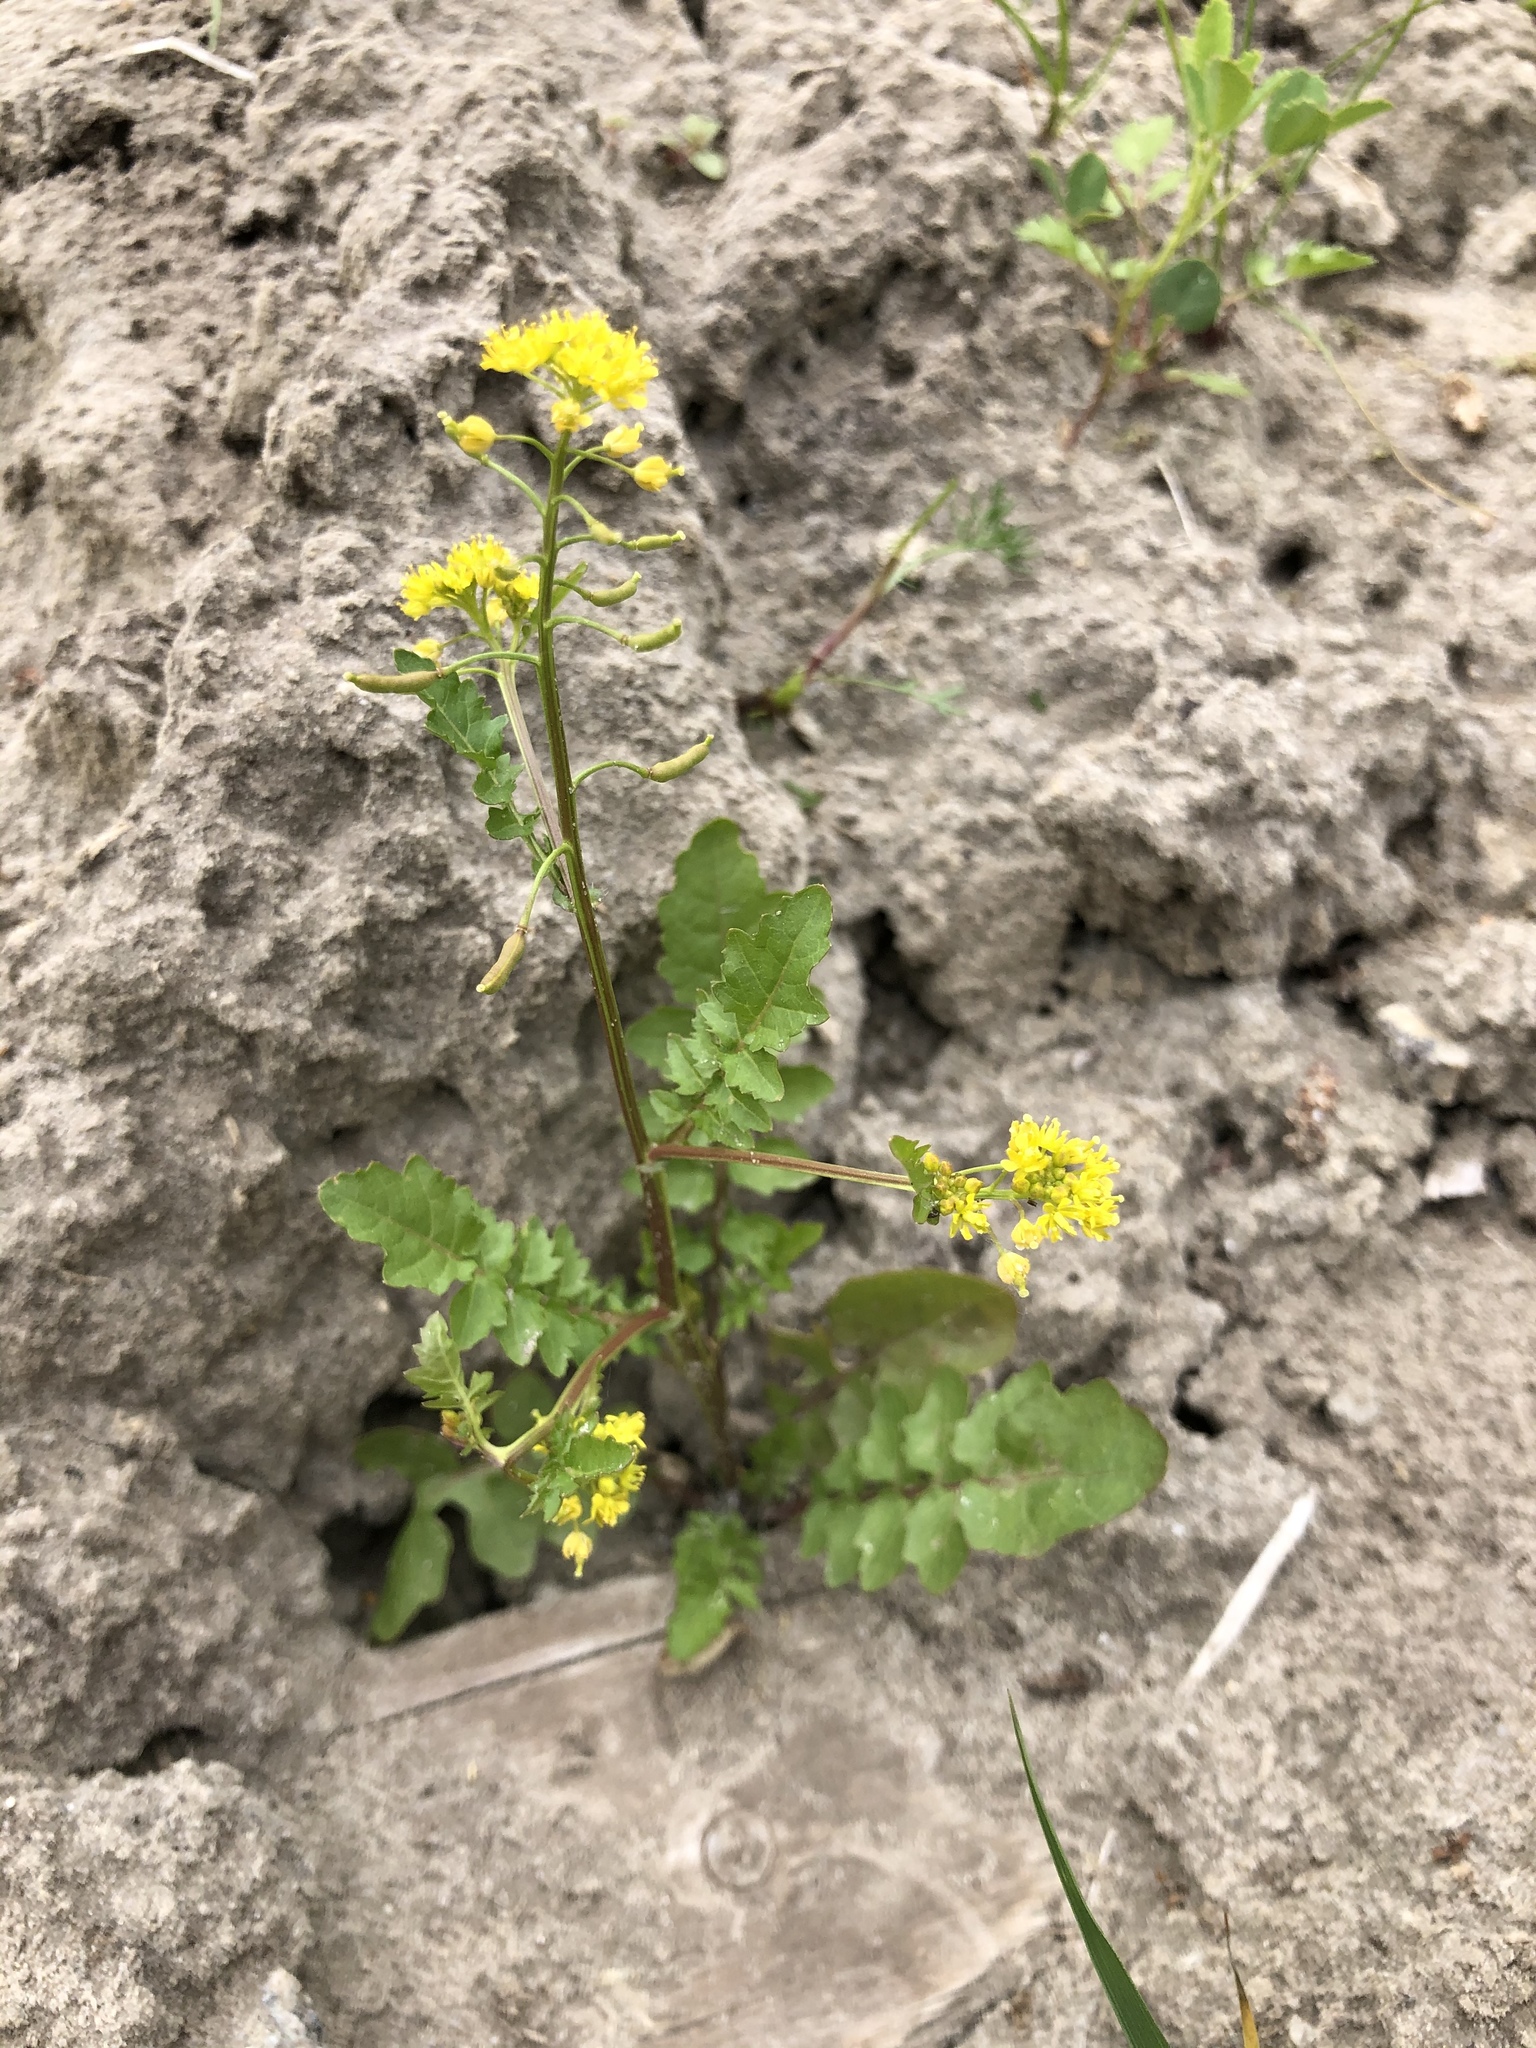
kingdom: Plantae
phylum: Tracheophyta
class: Magnoliopsida
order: Brassicales
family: Brassicaceae
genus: Rorippa
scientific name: Rorippa palustris
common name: Marsh yellow-cress
